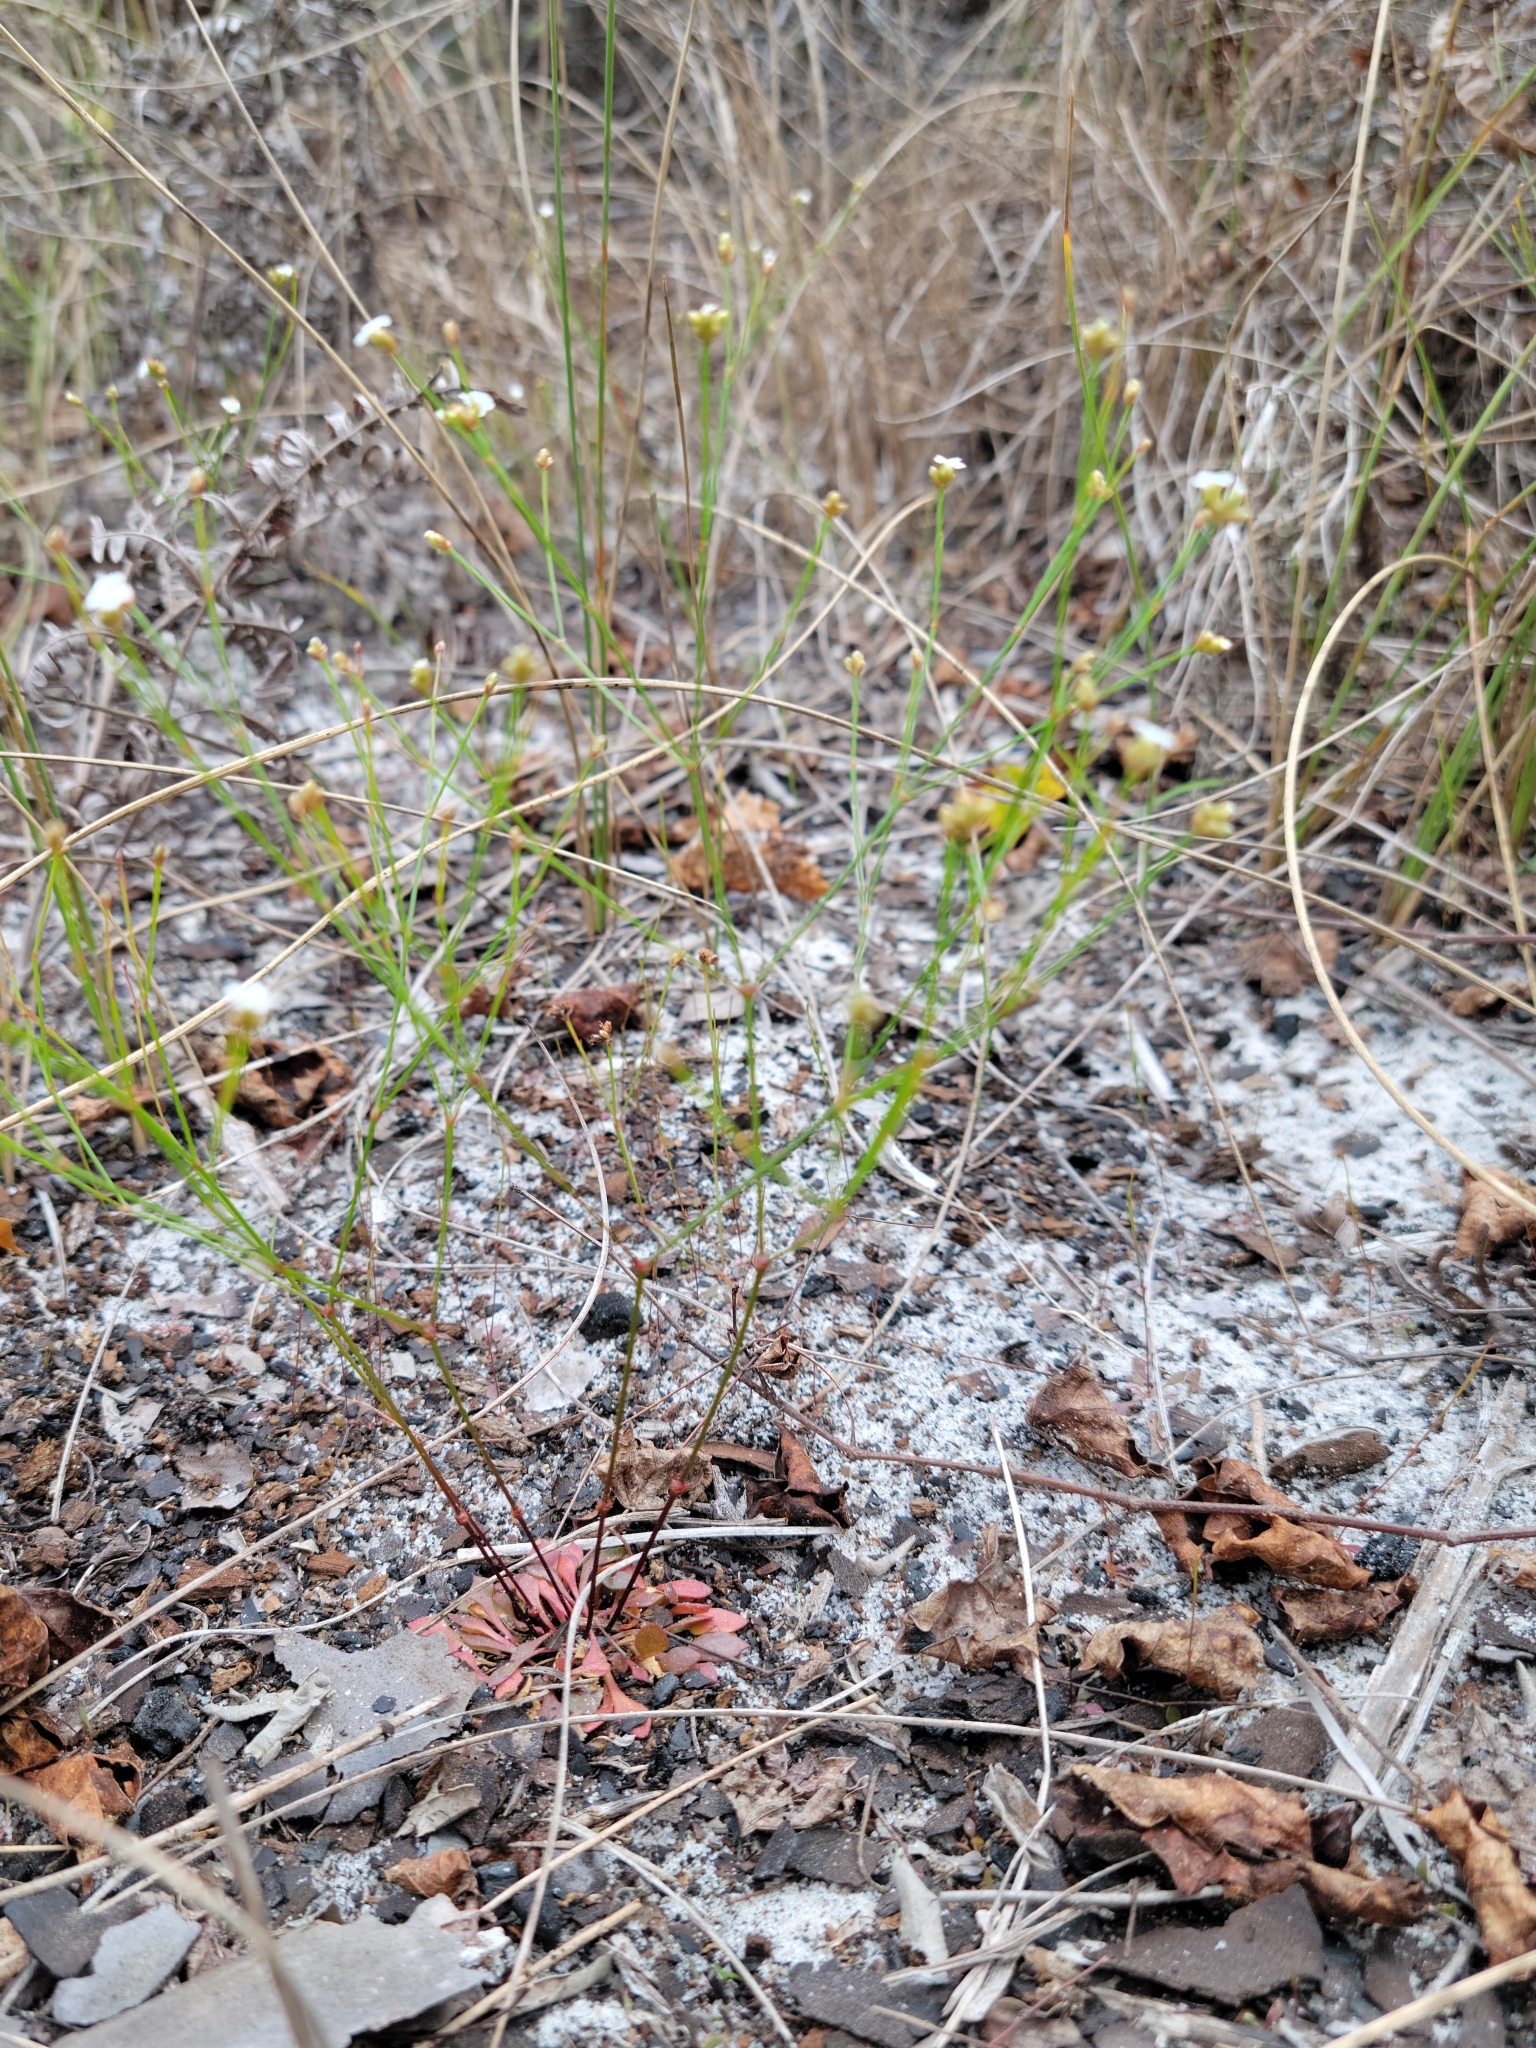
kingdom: Plantae
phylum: Tracheophyta
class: Magnoliopsida
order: Caryophyllales
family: Caryophyllaceae
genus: Stipulicida
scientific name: Stipulicida setacea
